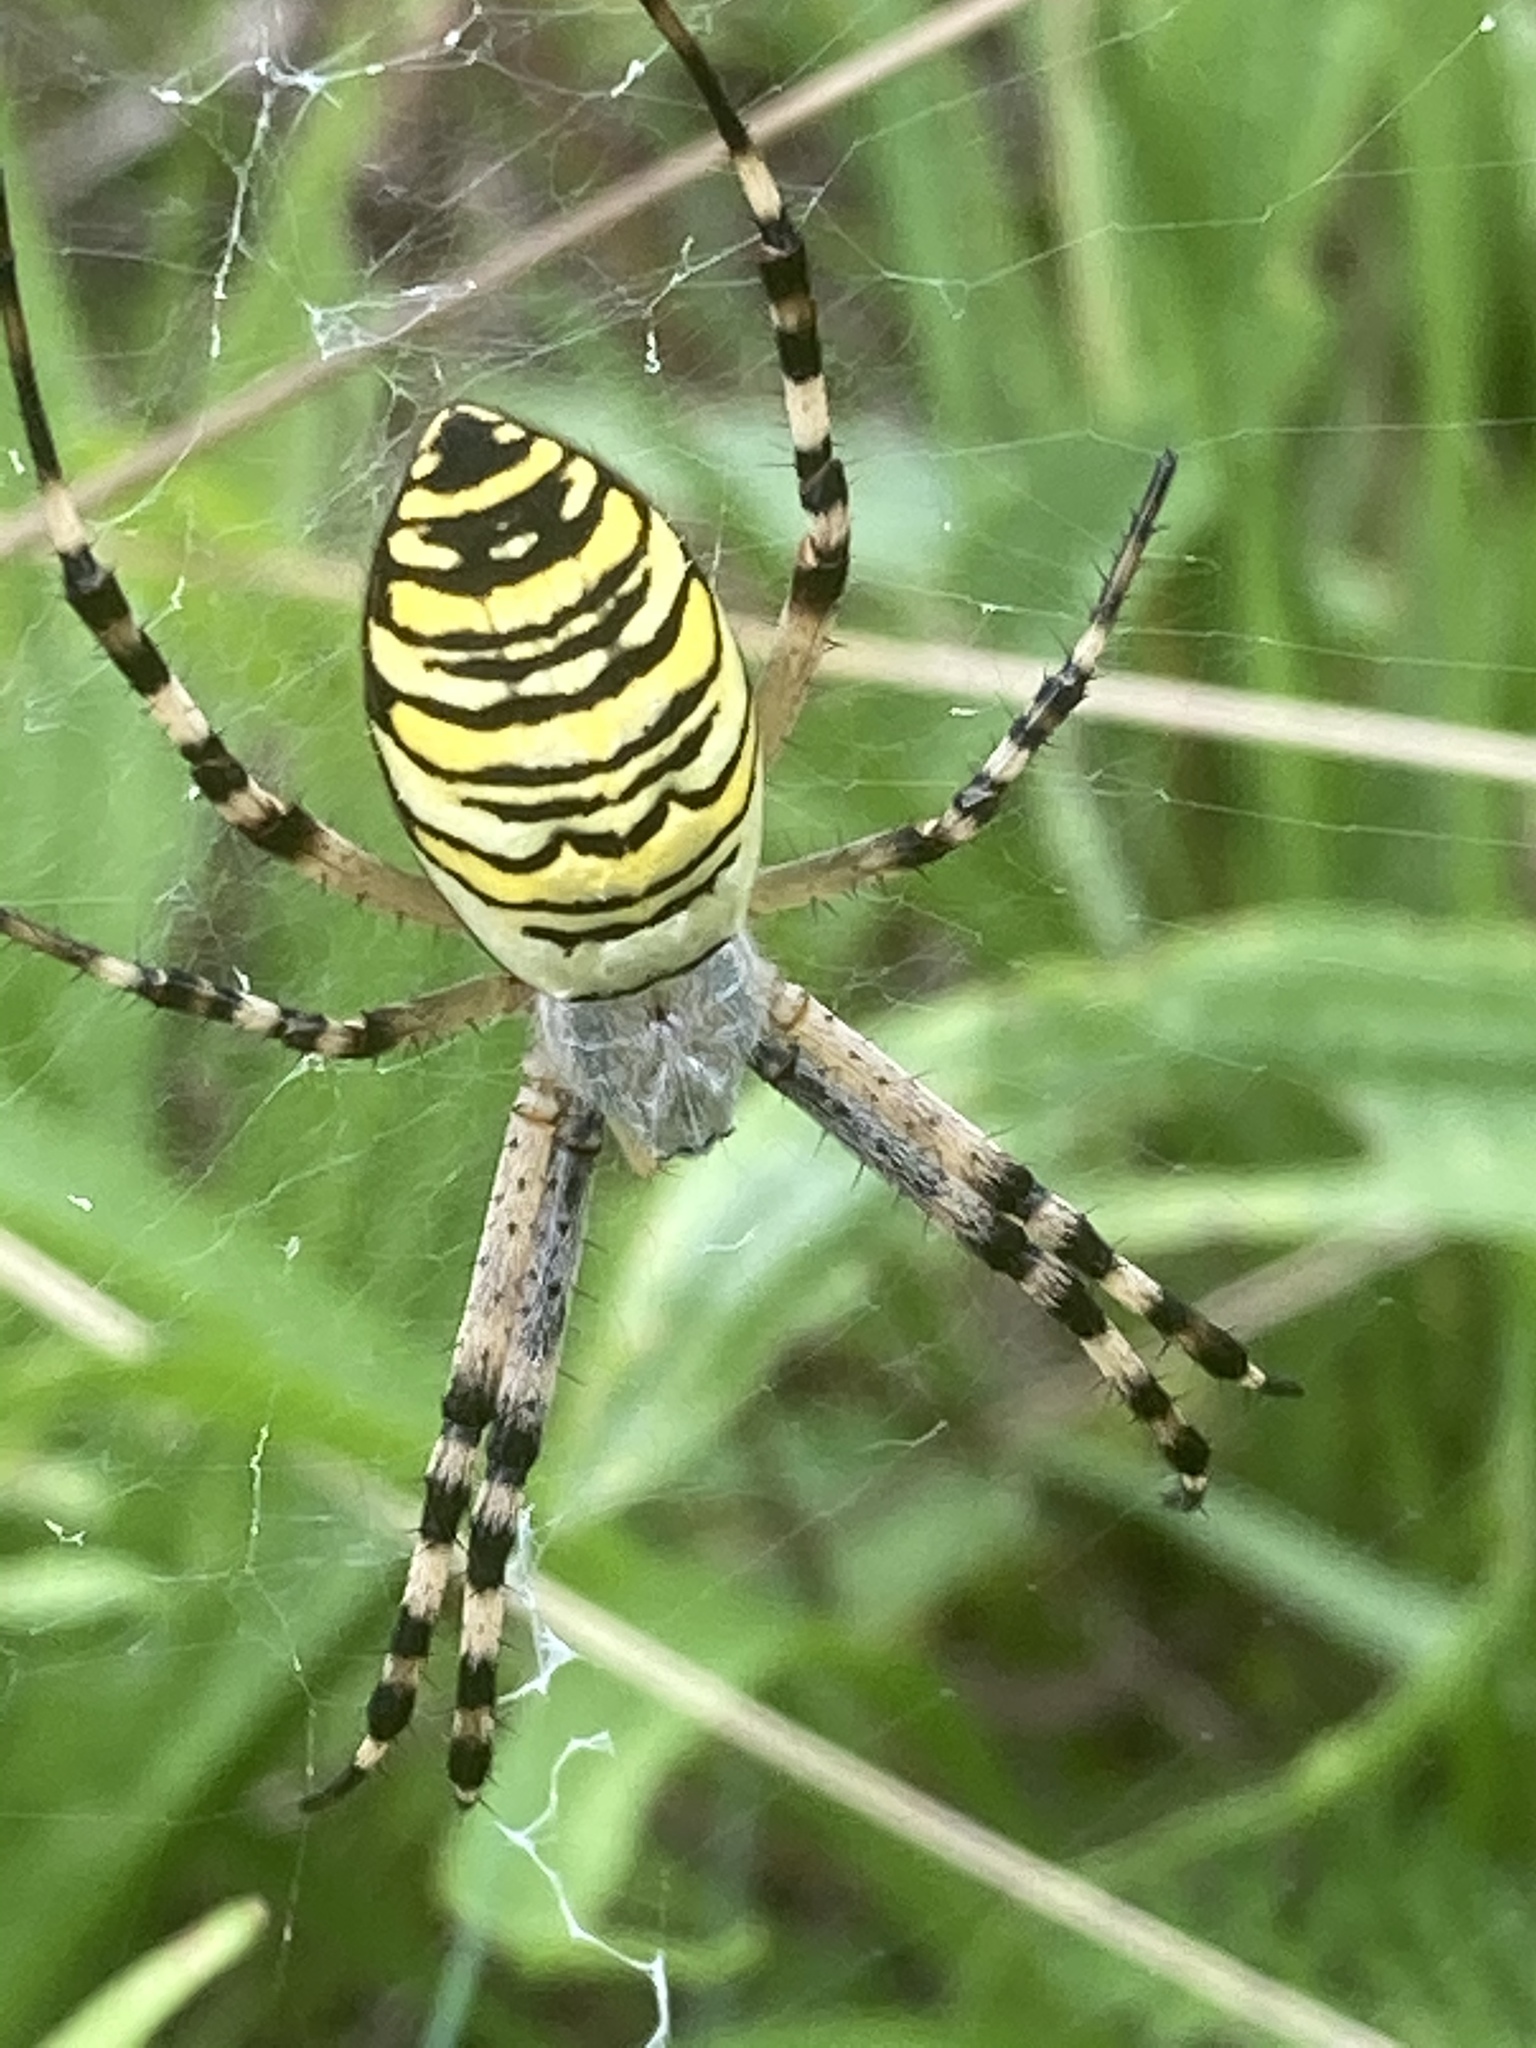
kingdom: Animalia
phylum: Arthropoda
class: Arachnida
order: Araneae
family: Araneidae
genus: Argiope
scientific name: Argiope bruennichi
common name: Wasp spider
